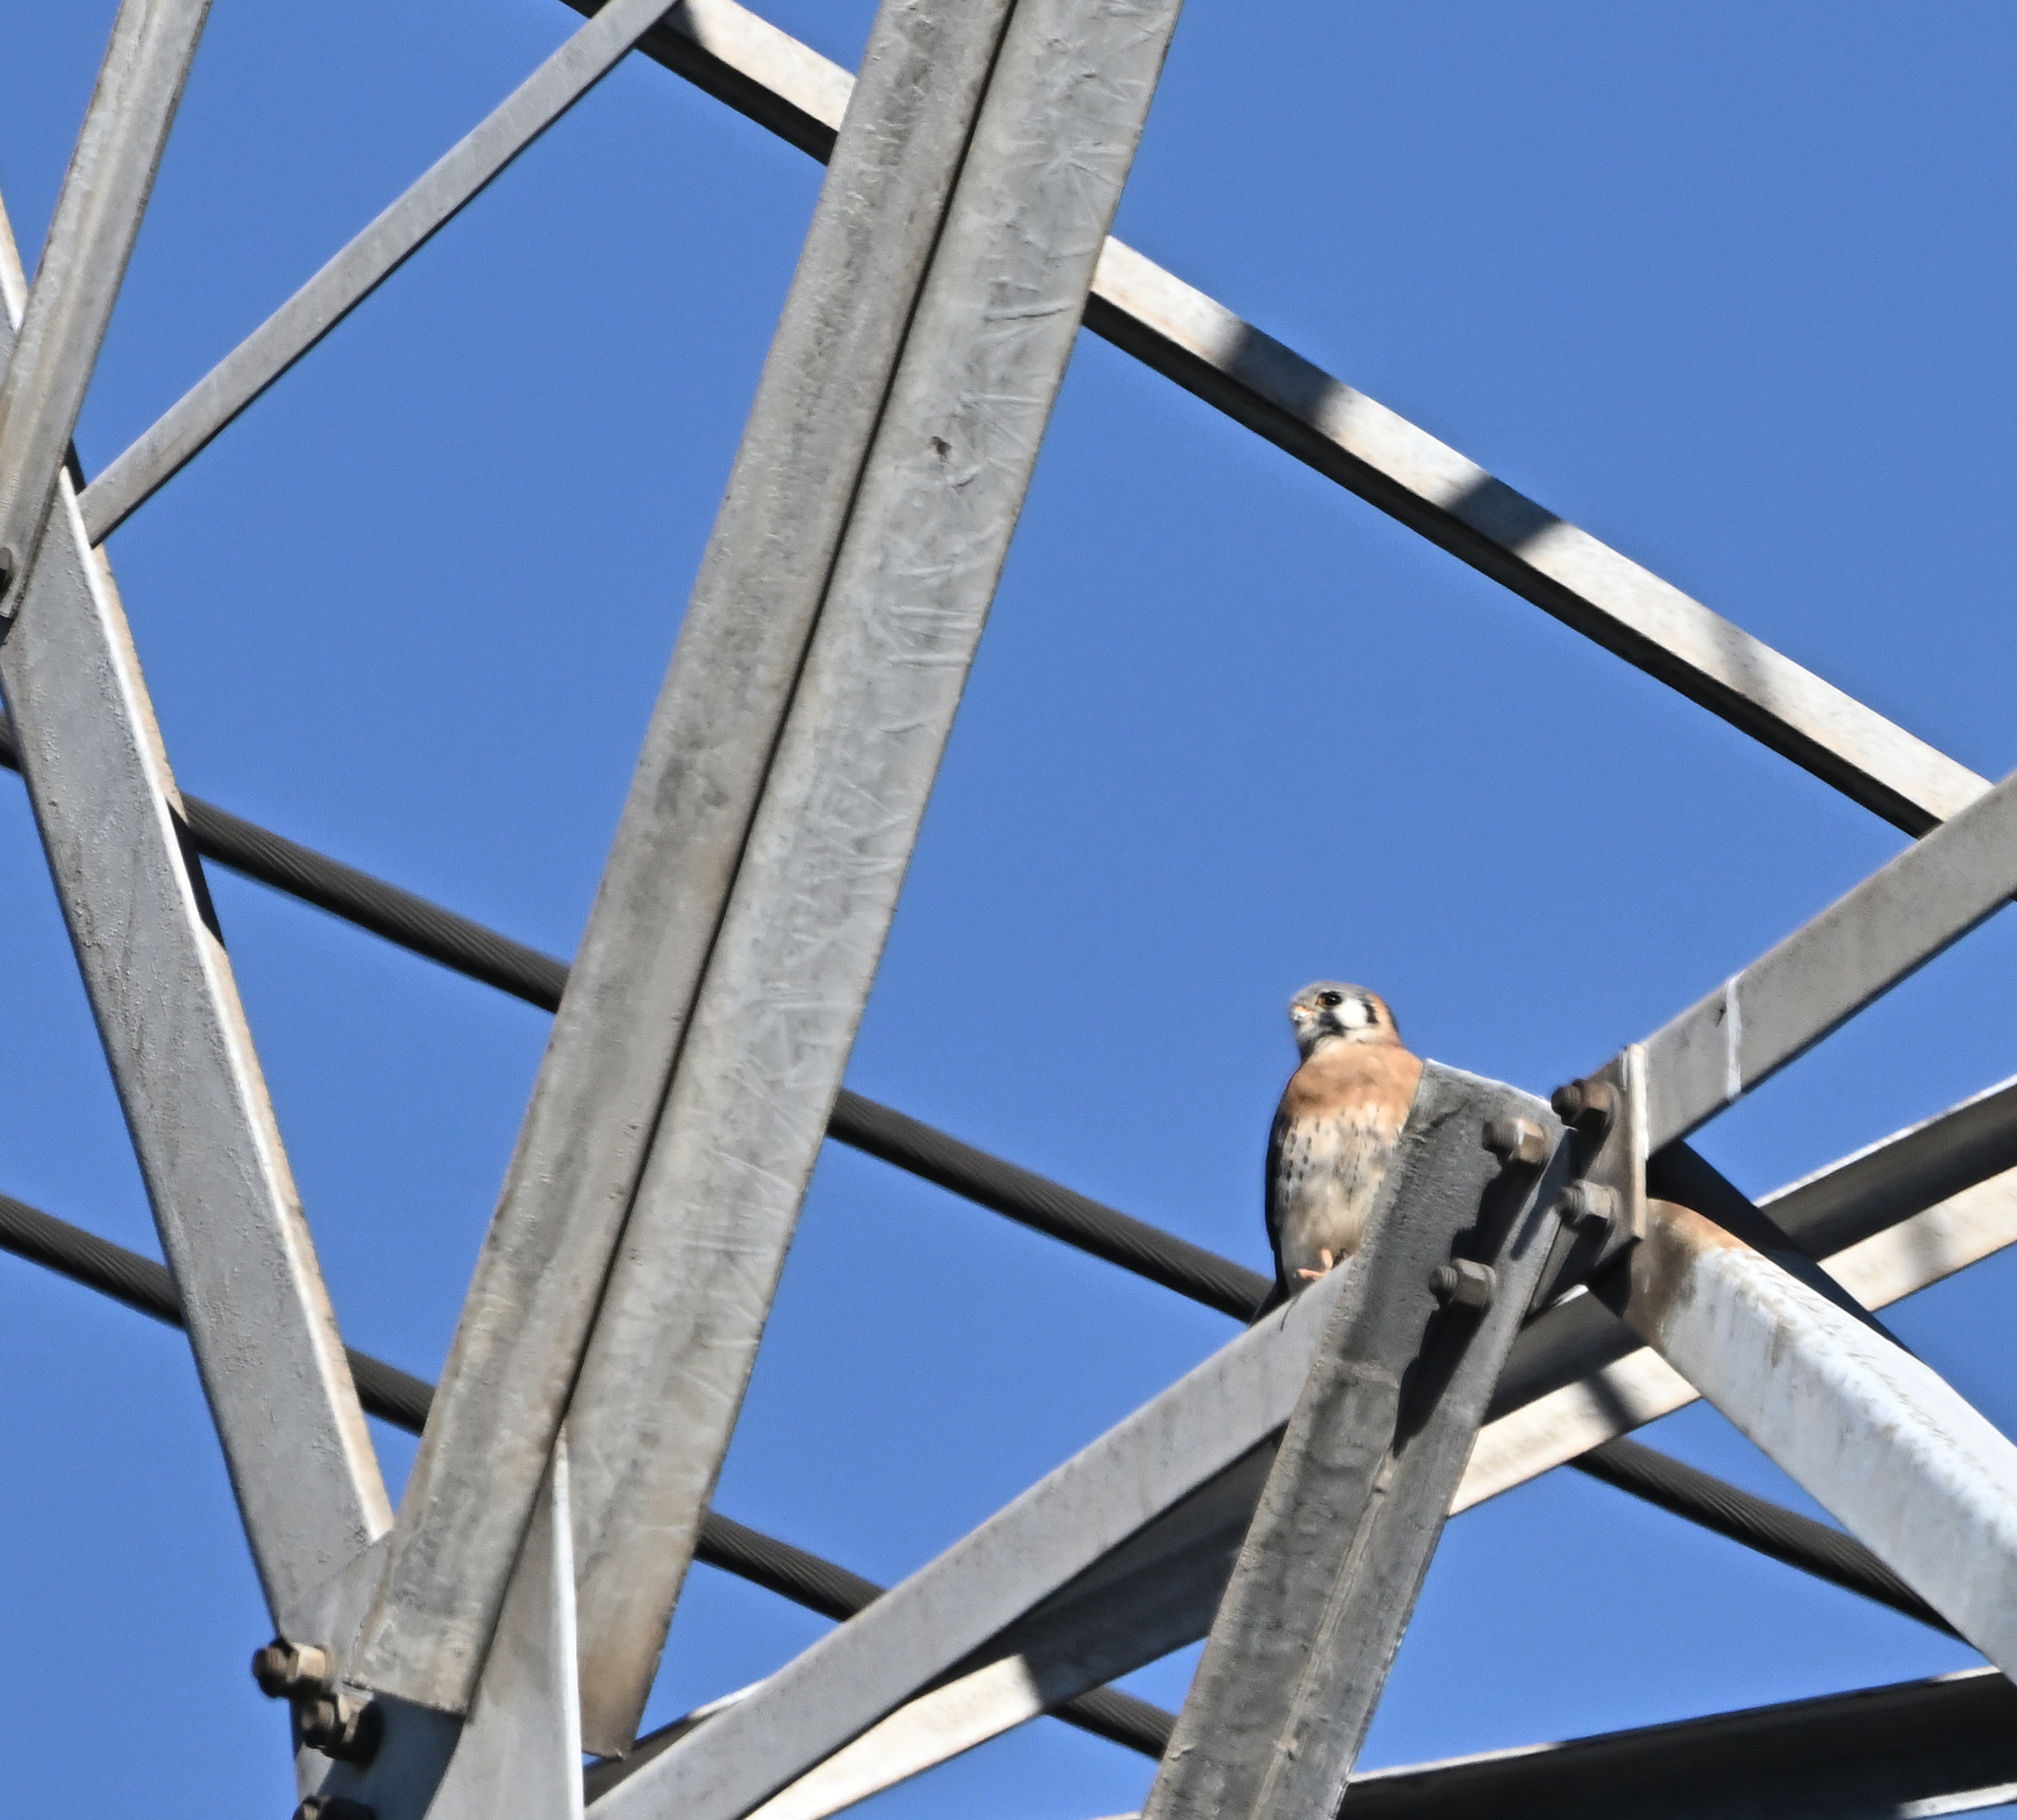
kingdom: Animalia
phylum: Chordata
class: Aves
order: Falconiformes
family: Falconidae
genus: Falco
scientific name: Falco sparverius
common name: American kestrel
